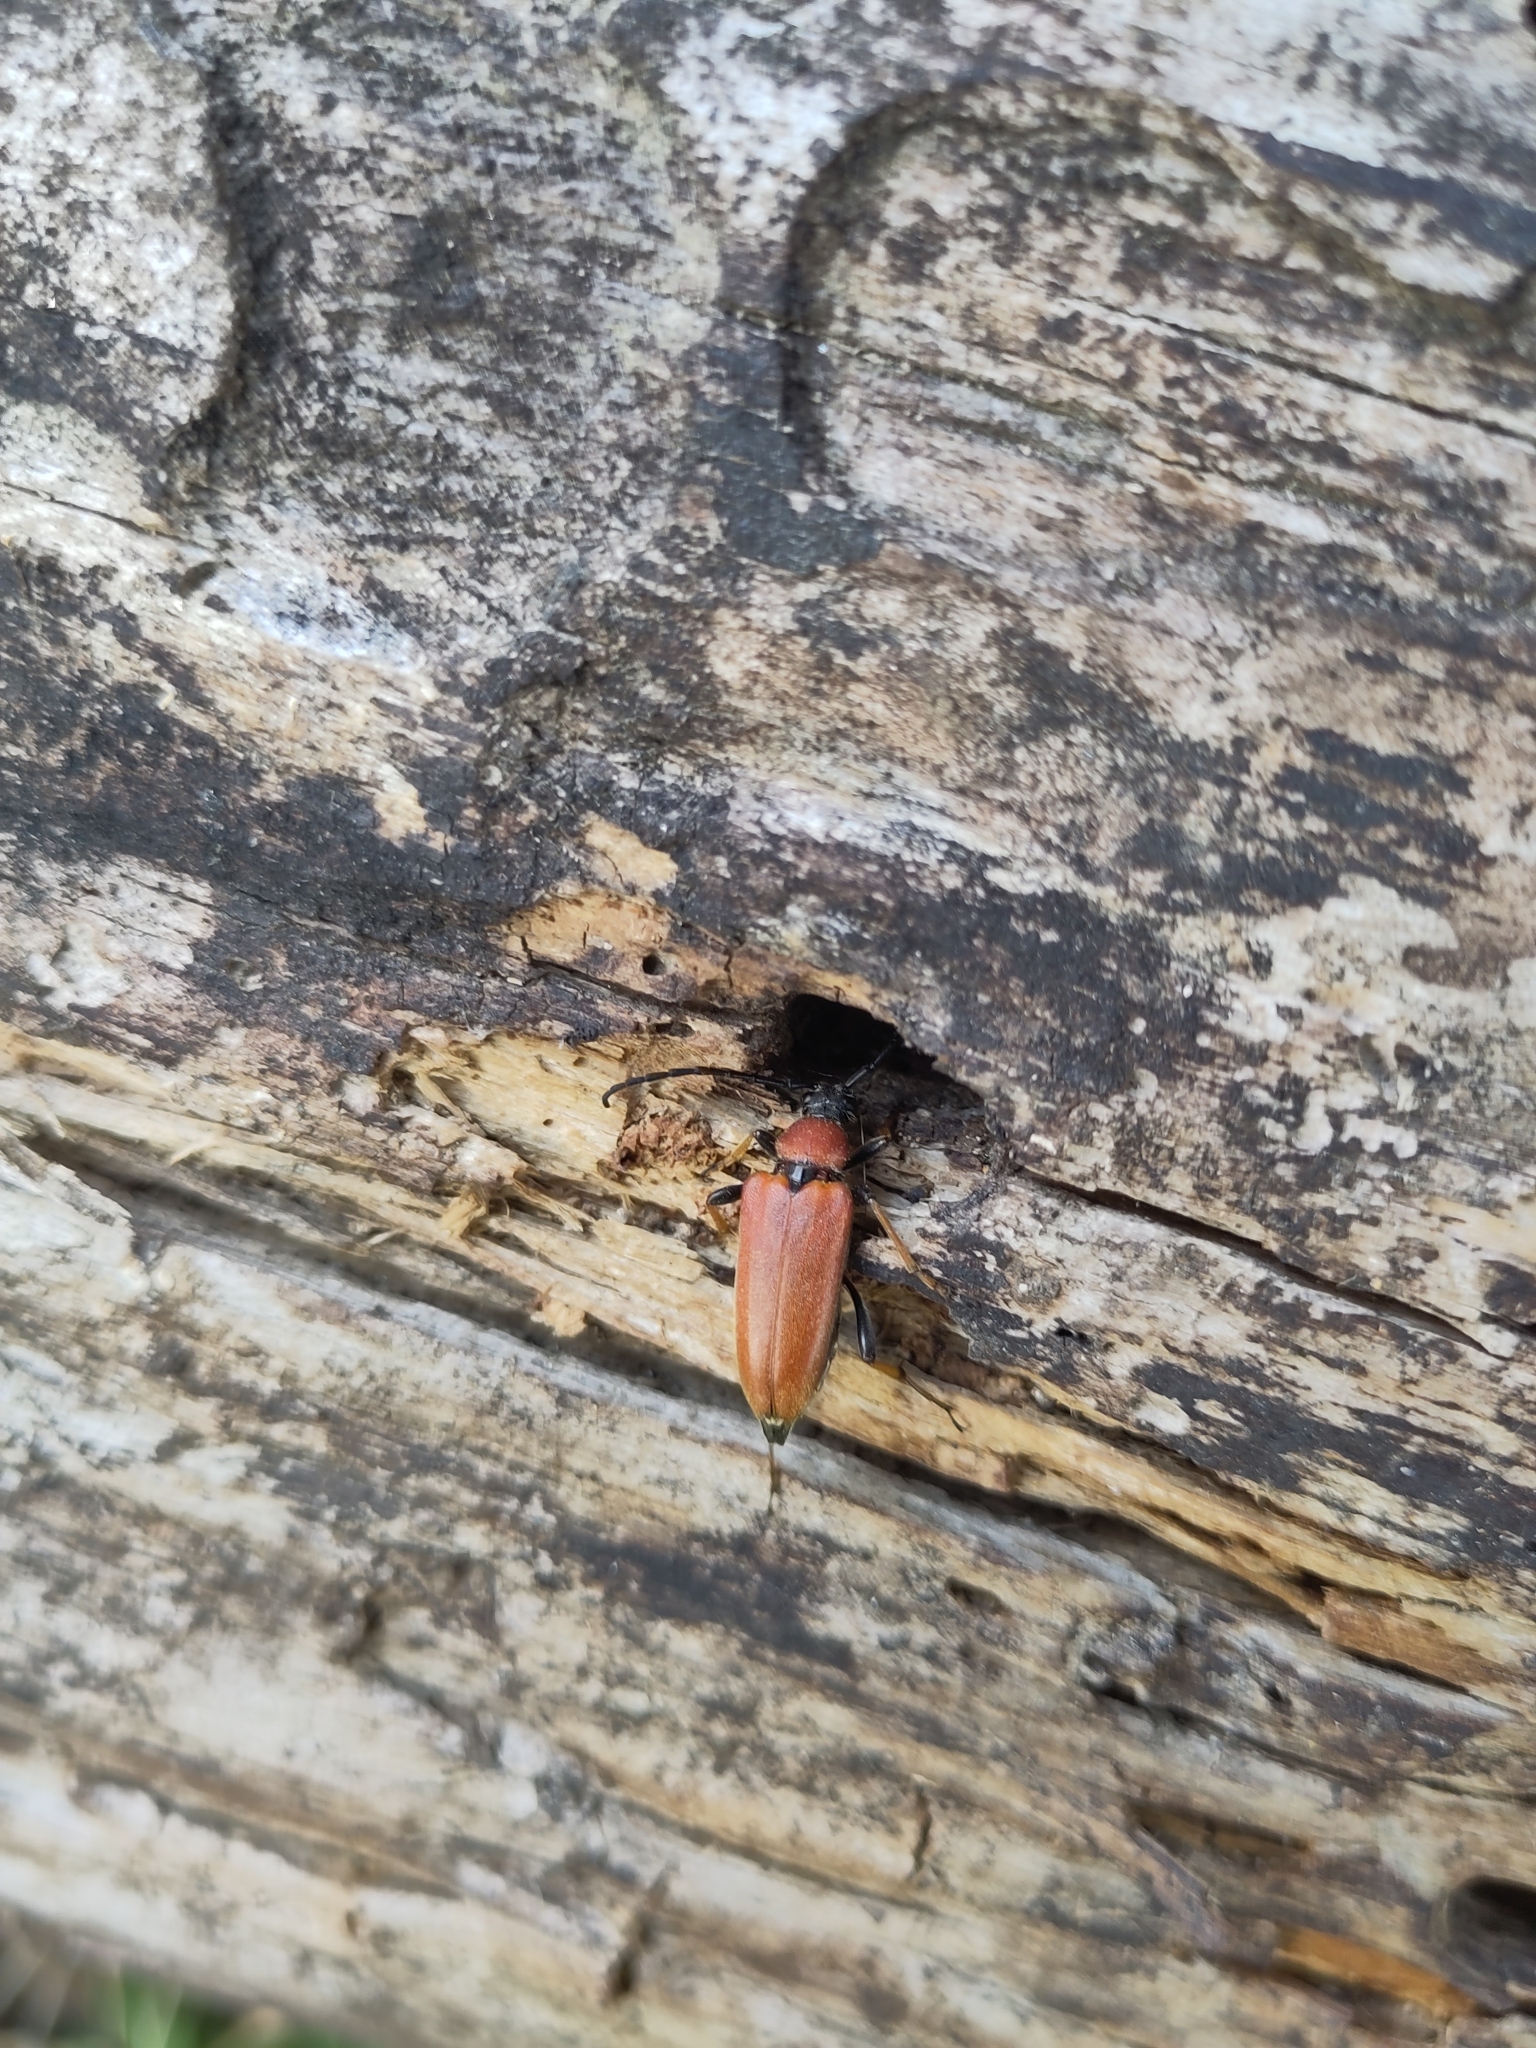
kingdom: Animalia
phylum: Arthropoda
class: Insecta
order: Coleoptera
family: Cerambycidae
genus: Stictoleptura
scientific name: Stictoleptura rubra
